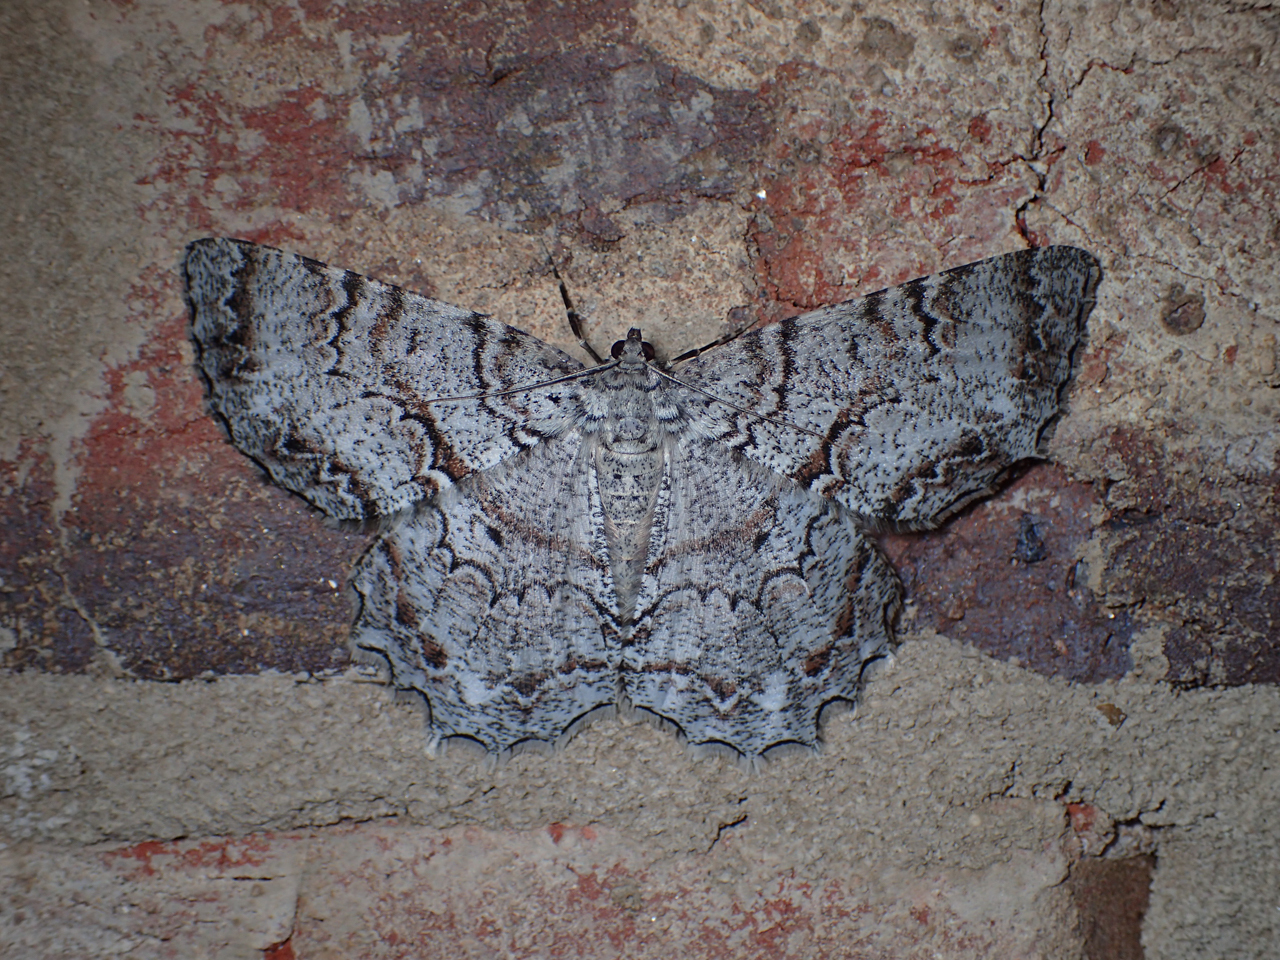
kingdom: Animalia
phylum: Arthropoda
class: Insecta
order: Lepidoptera
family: Geometridae
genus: Epimecis
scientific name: Epimecis hortaria
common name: Tulip-tree beauty
